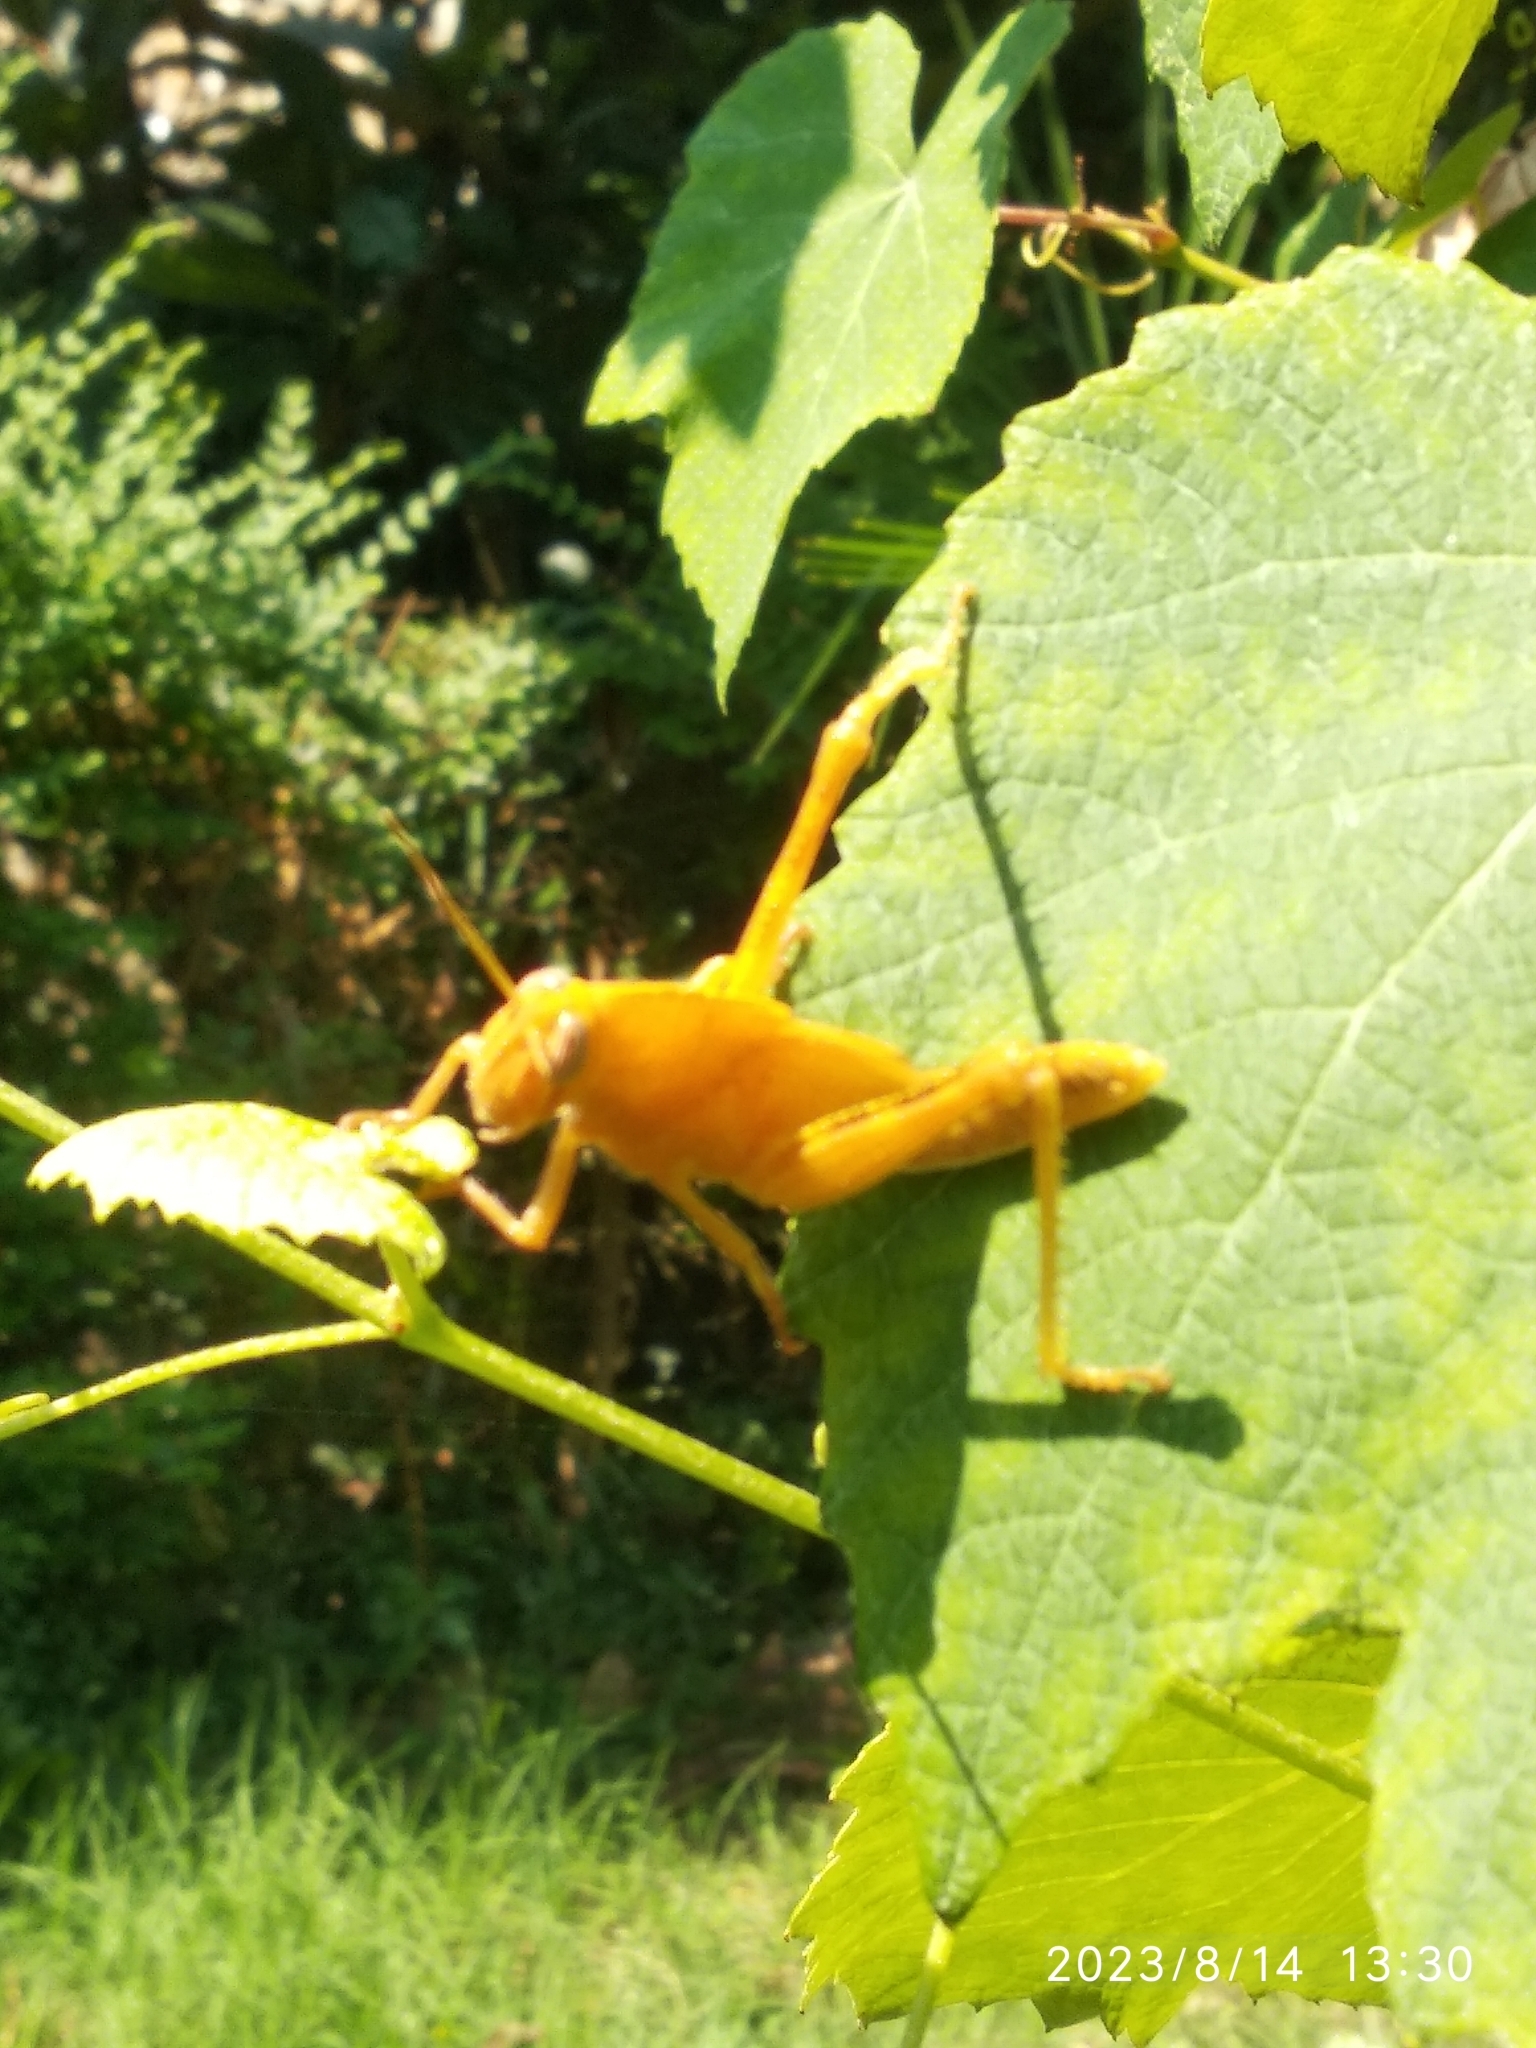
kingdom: Animalia
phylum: Arthropoda
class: Insecta
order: Orthoptera
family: Acrididae
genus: Anacridium
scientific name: Anacridium aegyptium
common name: Egyptian grasshopper
